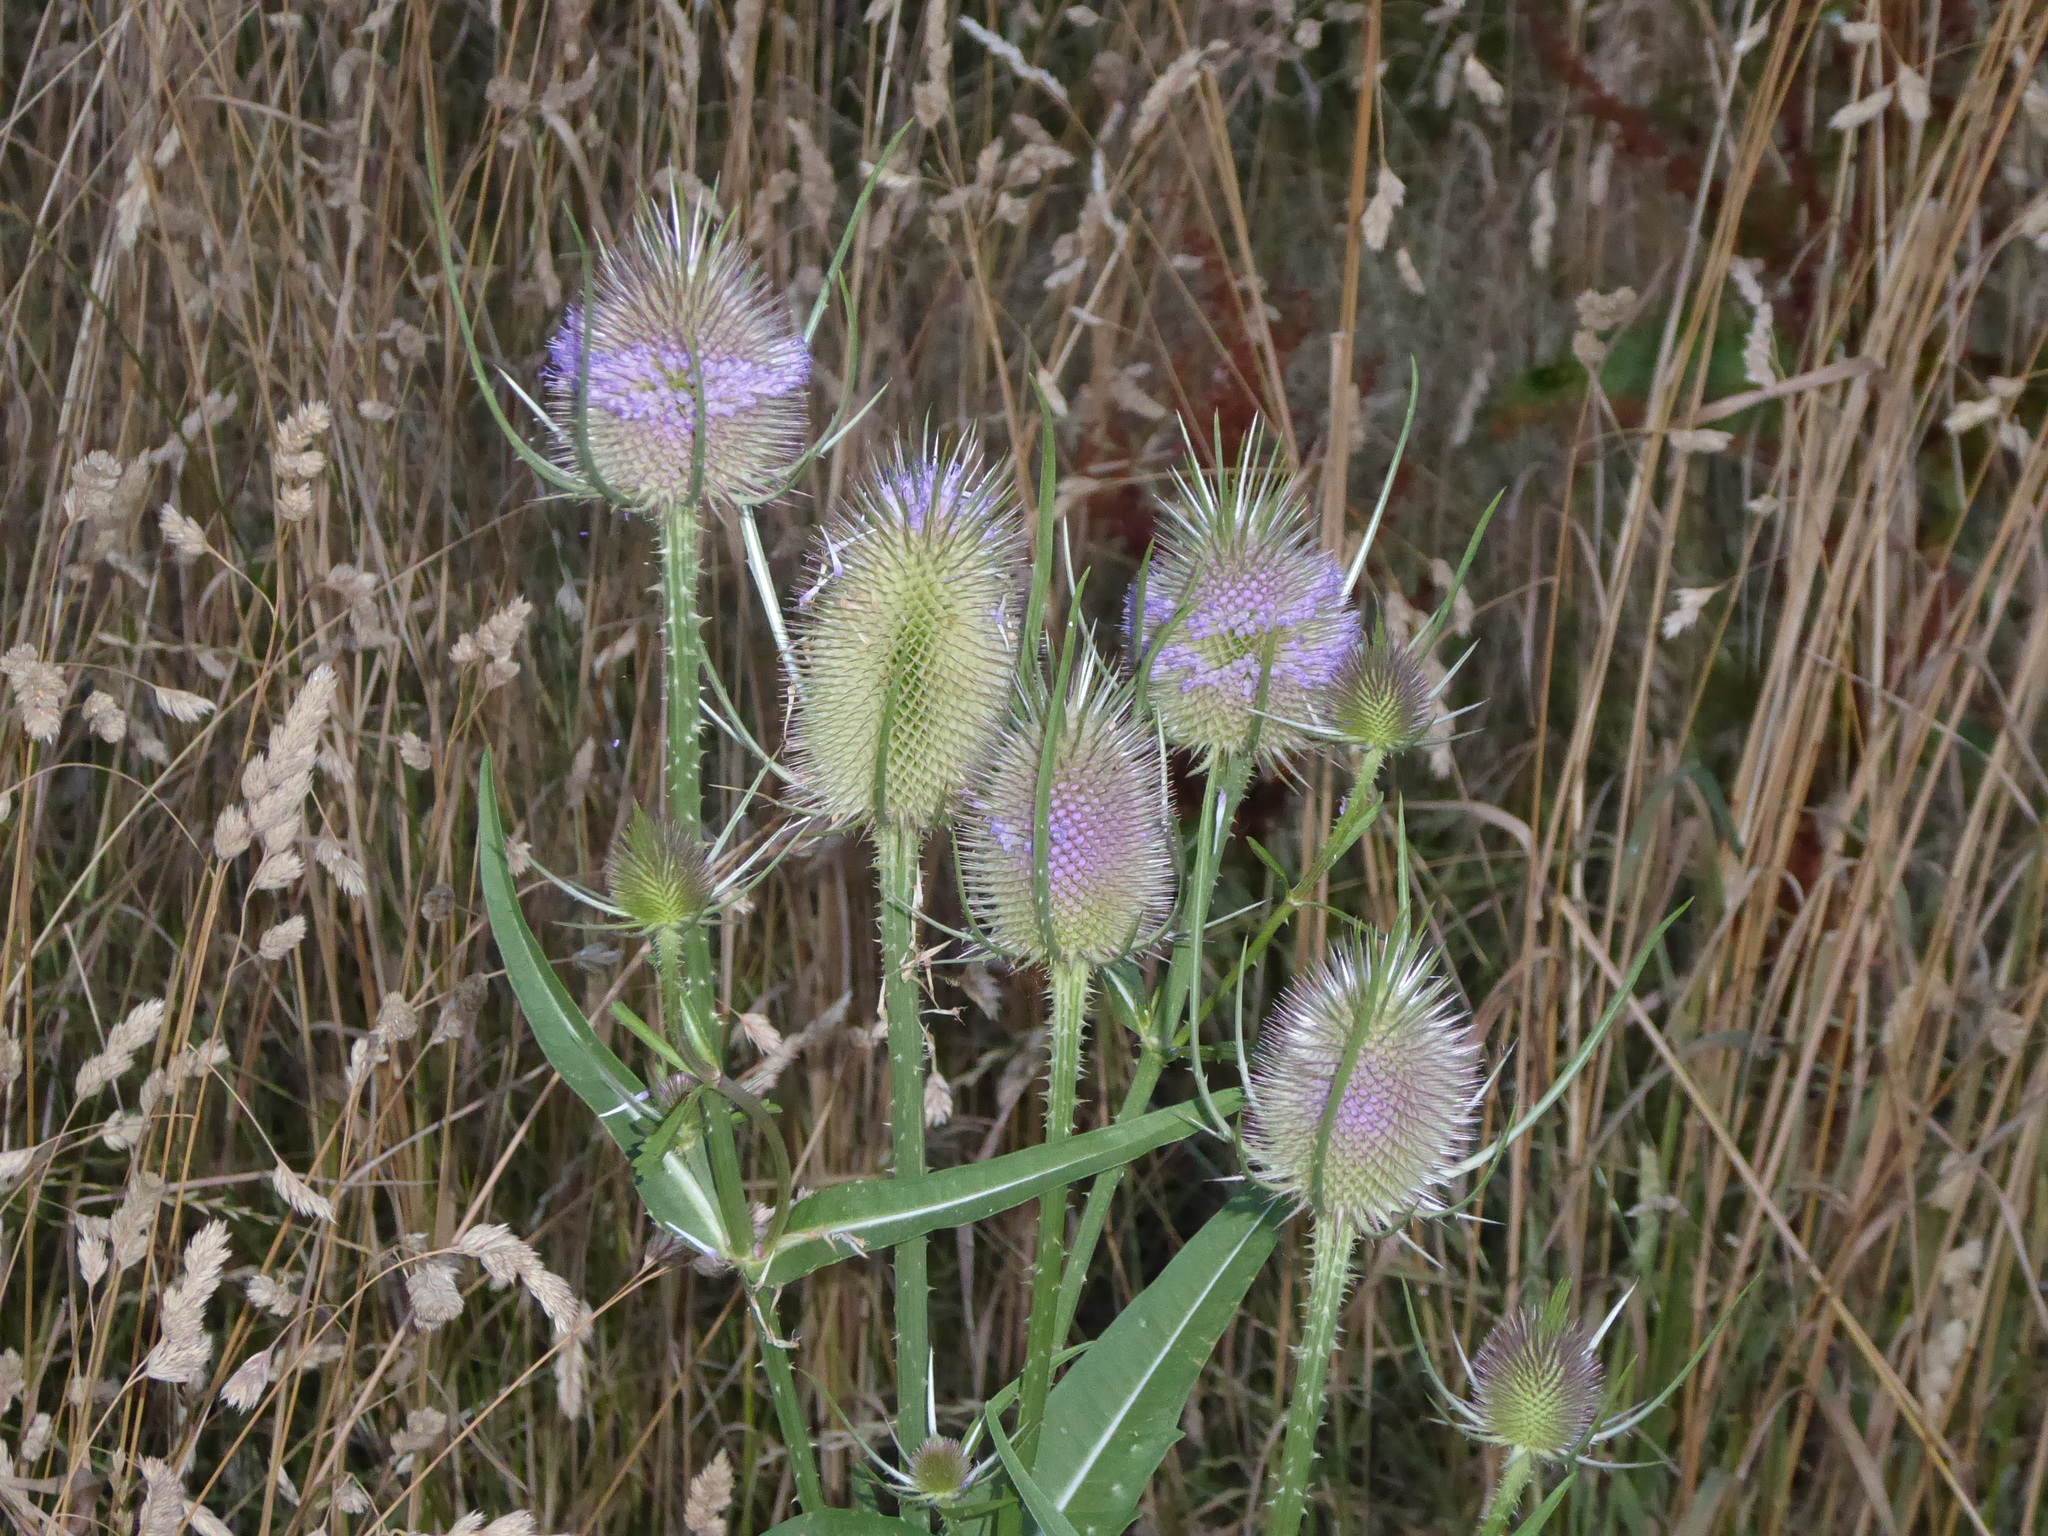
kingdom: Plantae
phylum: Tracheophyta
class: Magnoliopsida
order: Dipsacales
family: Caprifoliaceae
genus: Dipsacus
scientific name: Dipsacus fullonum
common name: Teasel
